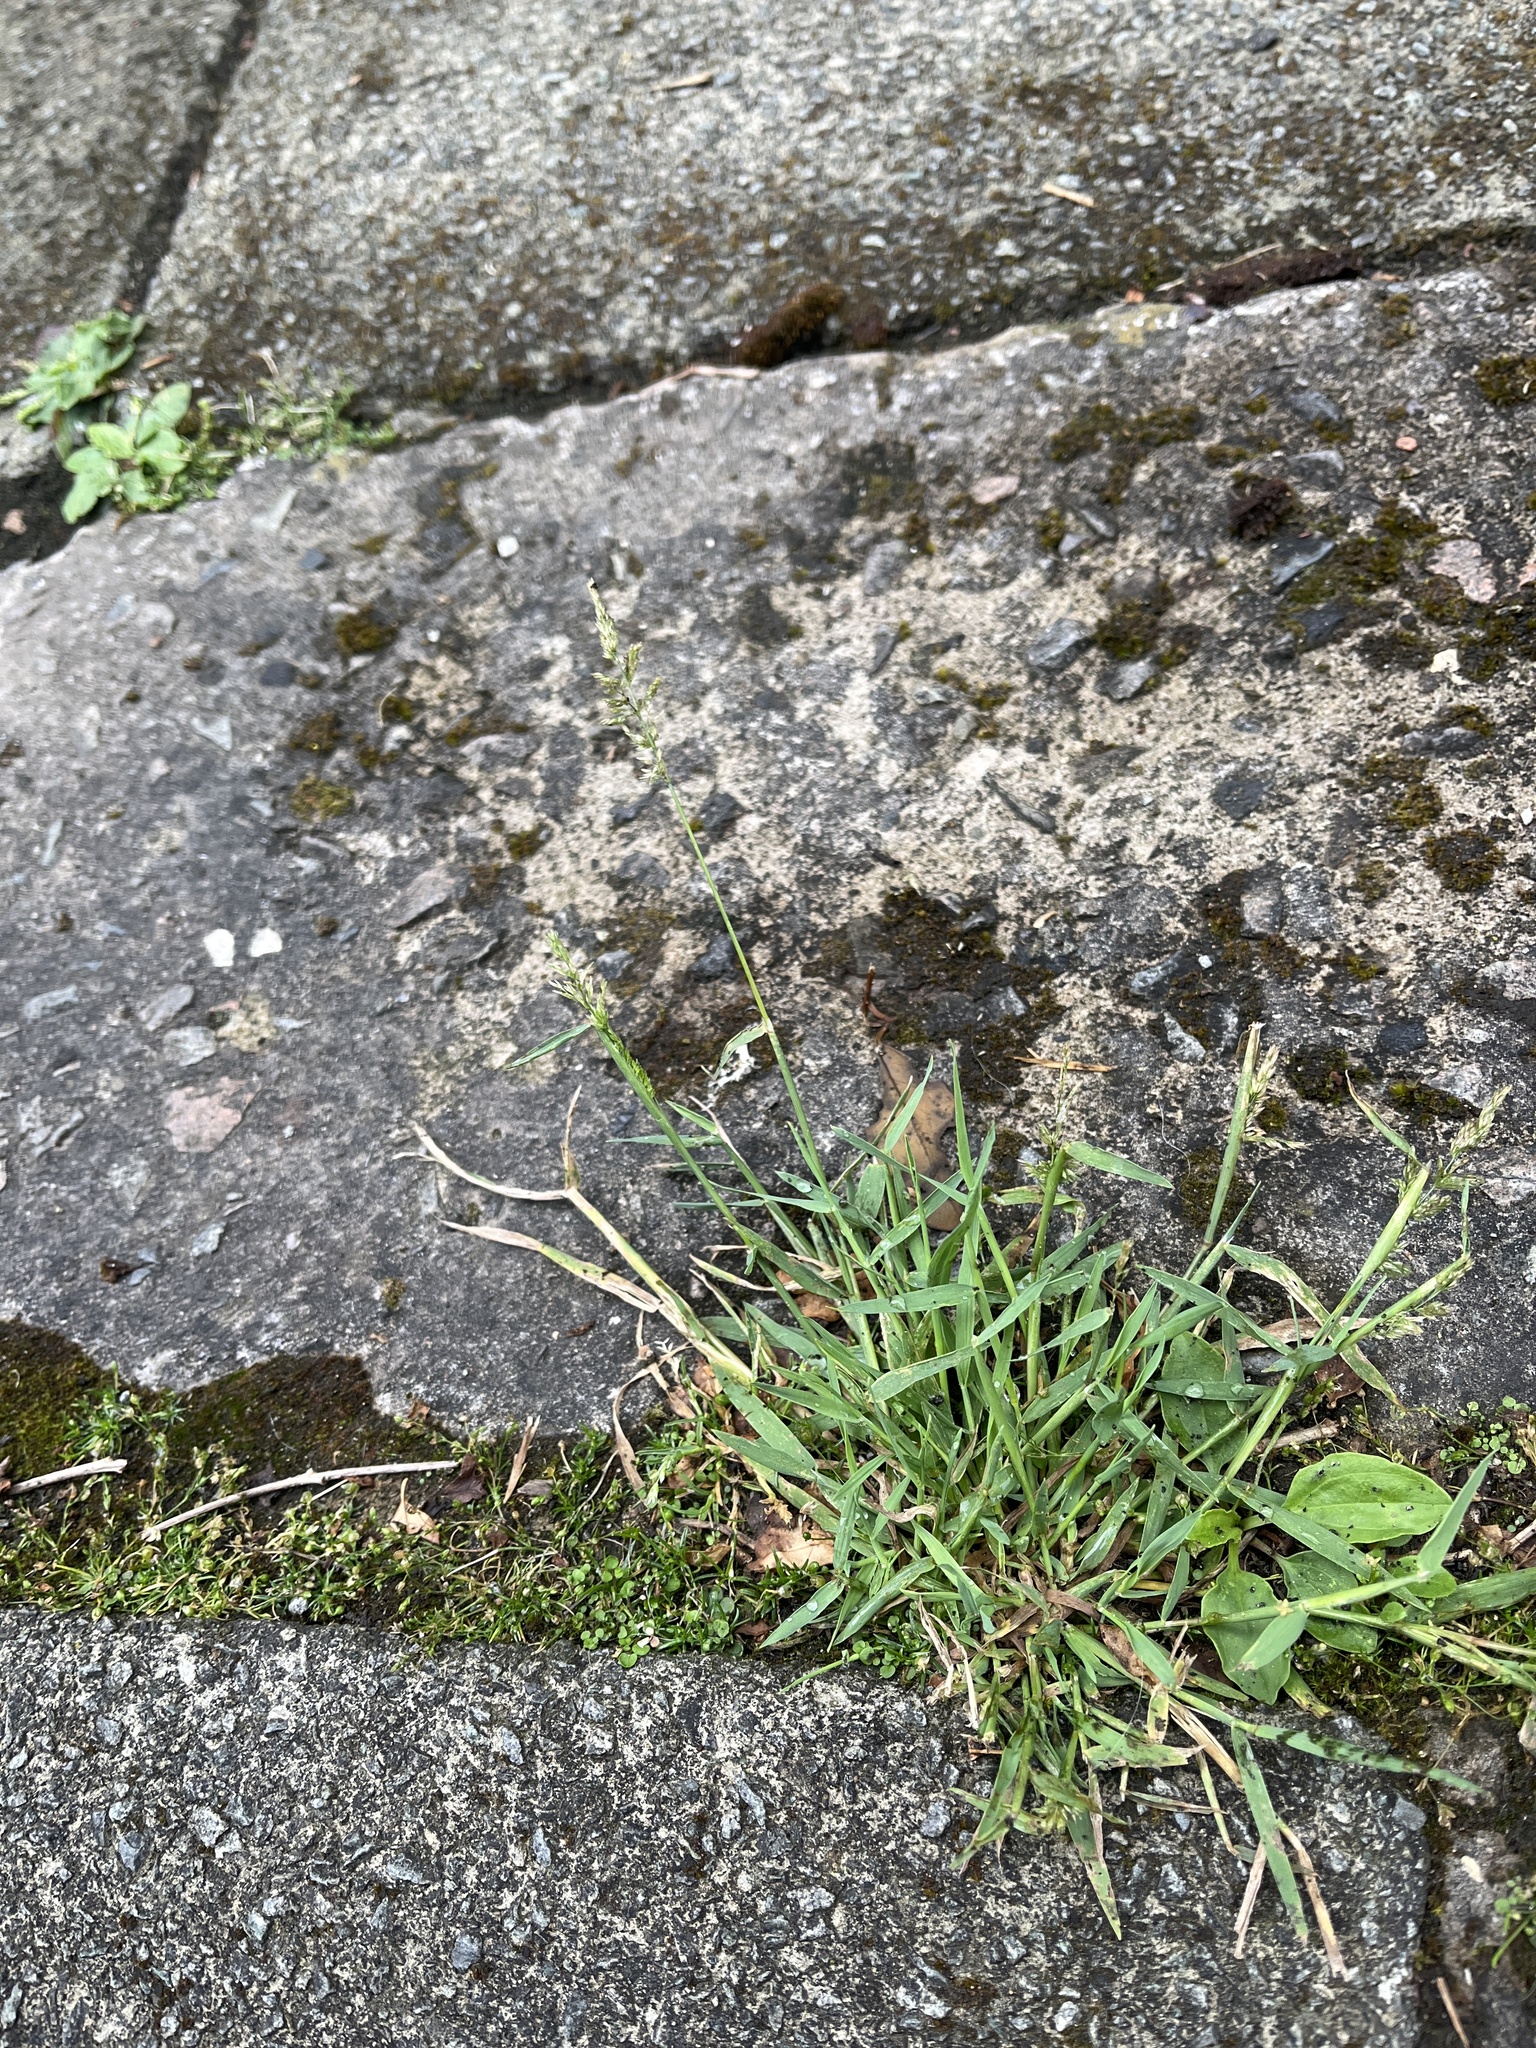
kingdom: Plantae
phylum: Tracheophyta
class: Liliopsida
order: Poales
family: Poaceae
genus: Polypogon
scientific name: Polypogon viridis
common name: Water bent
